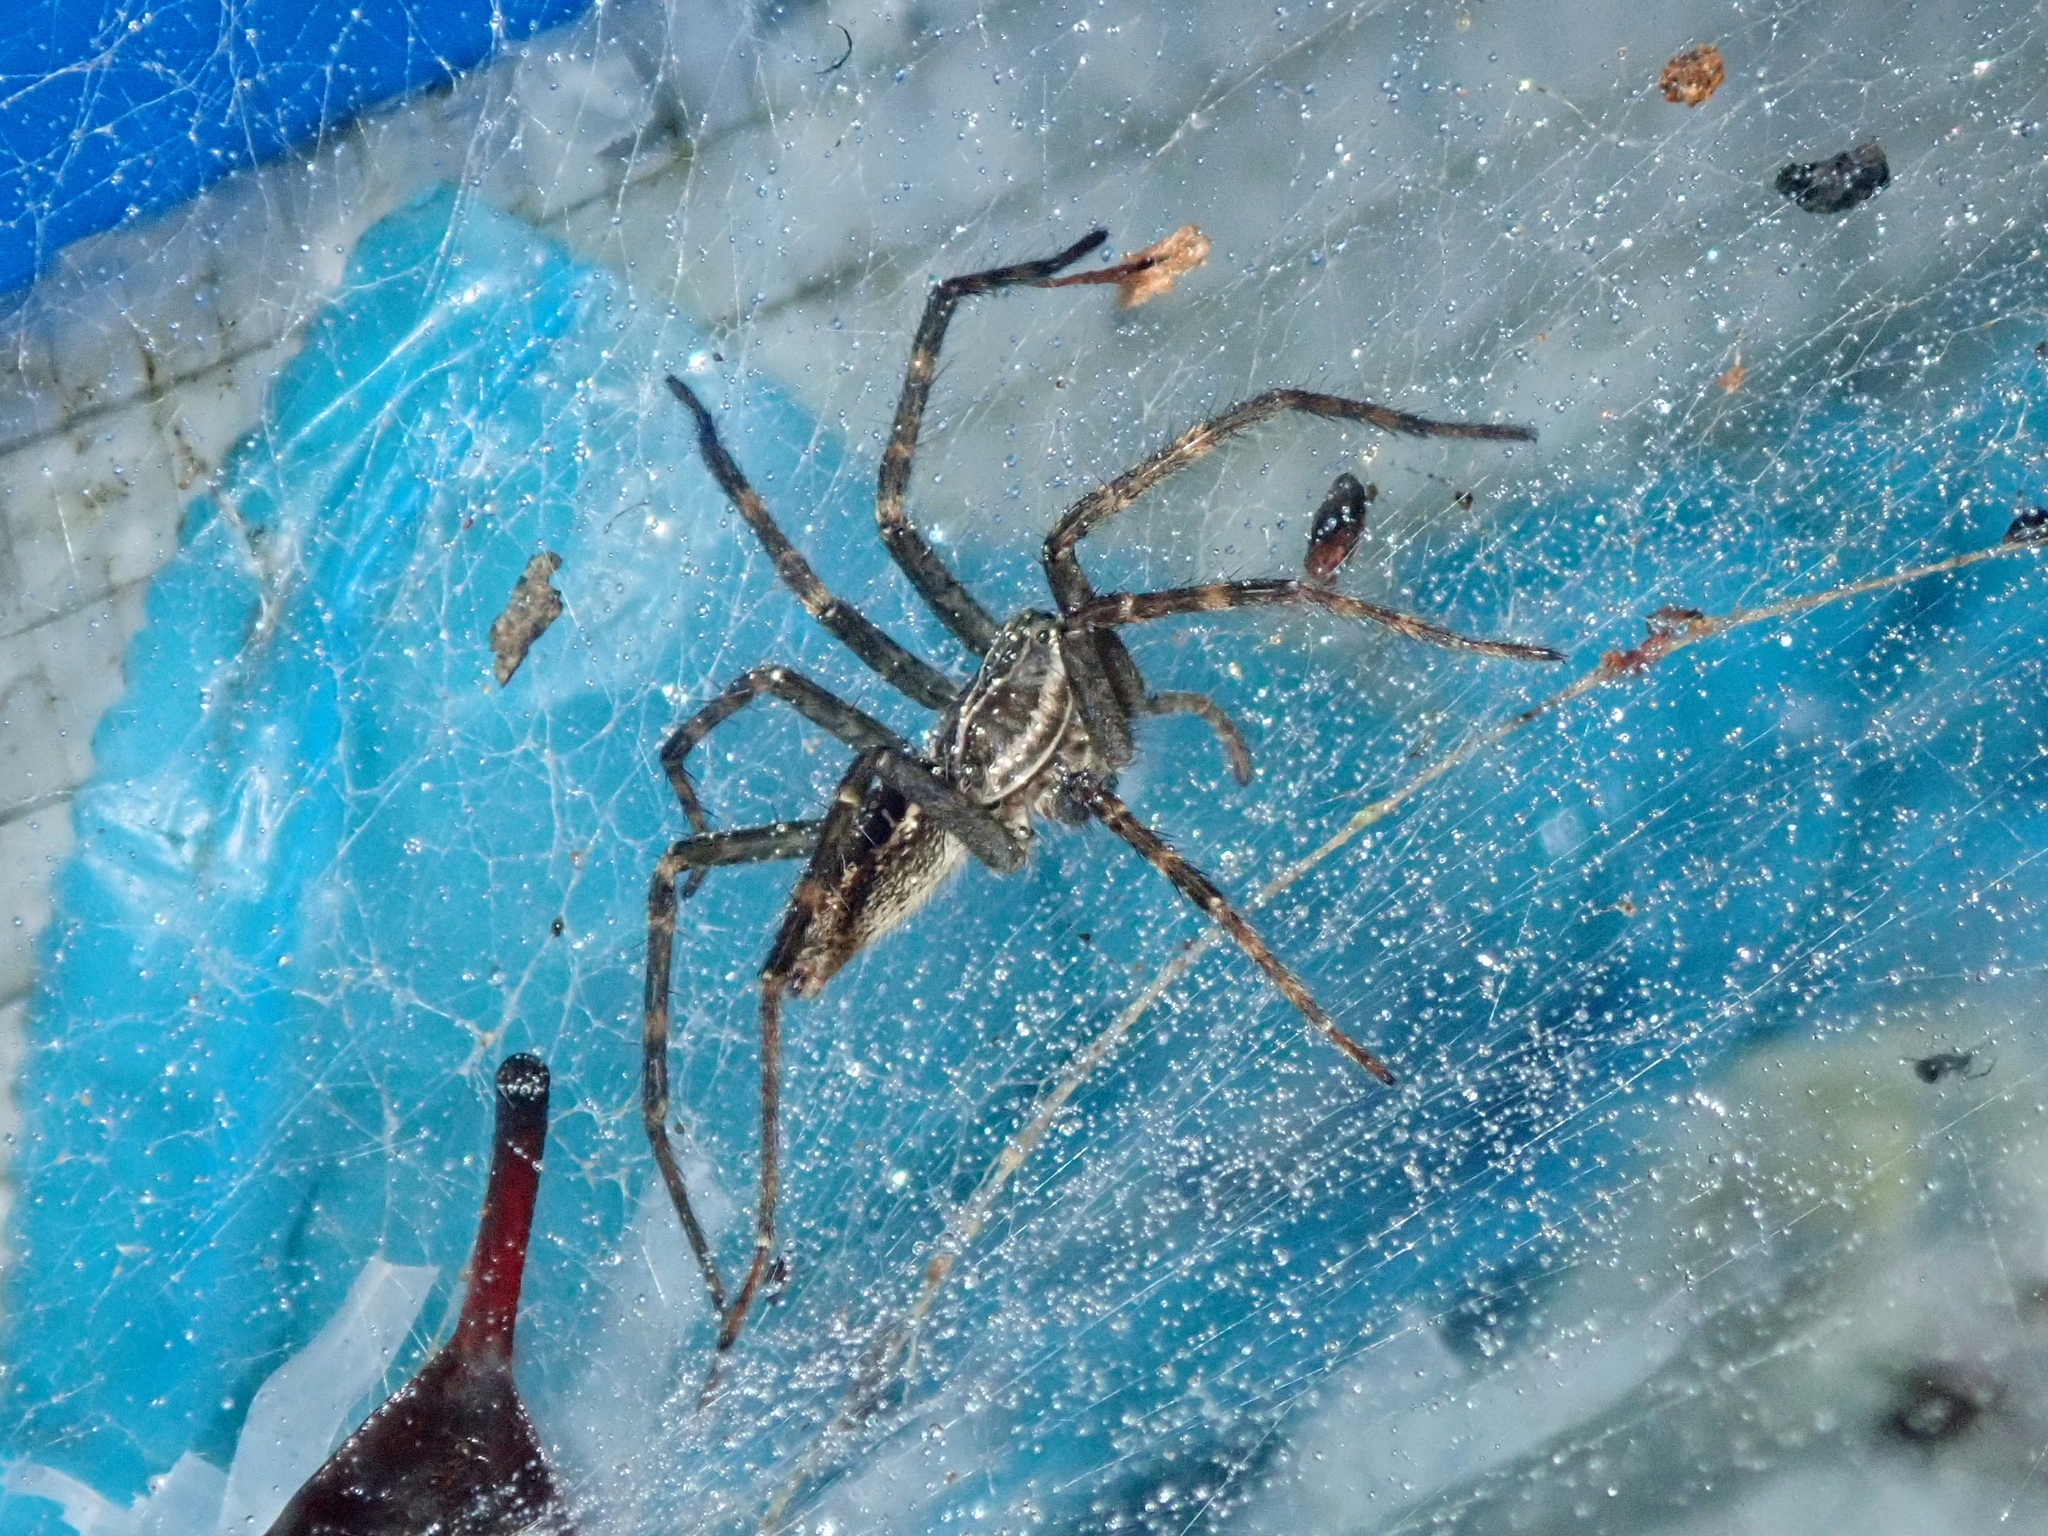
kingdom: Animalia
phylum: Arthropoda
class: Arachnida
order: Araneae
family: Lycosidae
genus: Aglaoctenus
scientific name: Aglaoctenus lagotis
